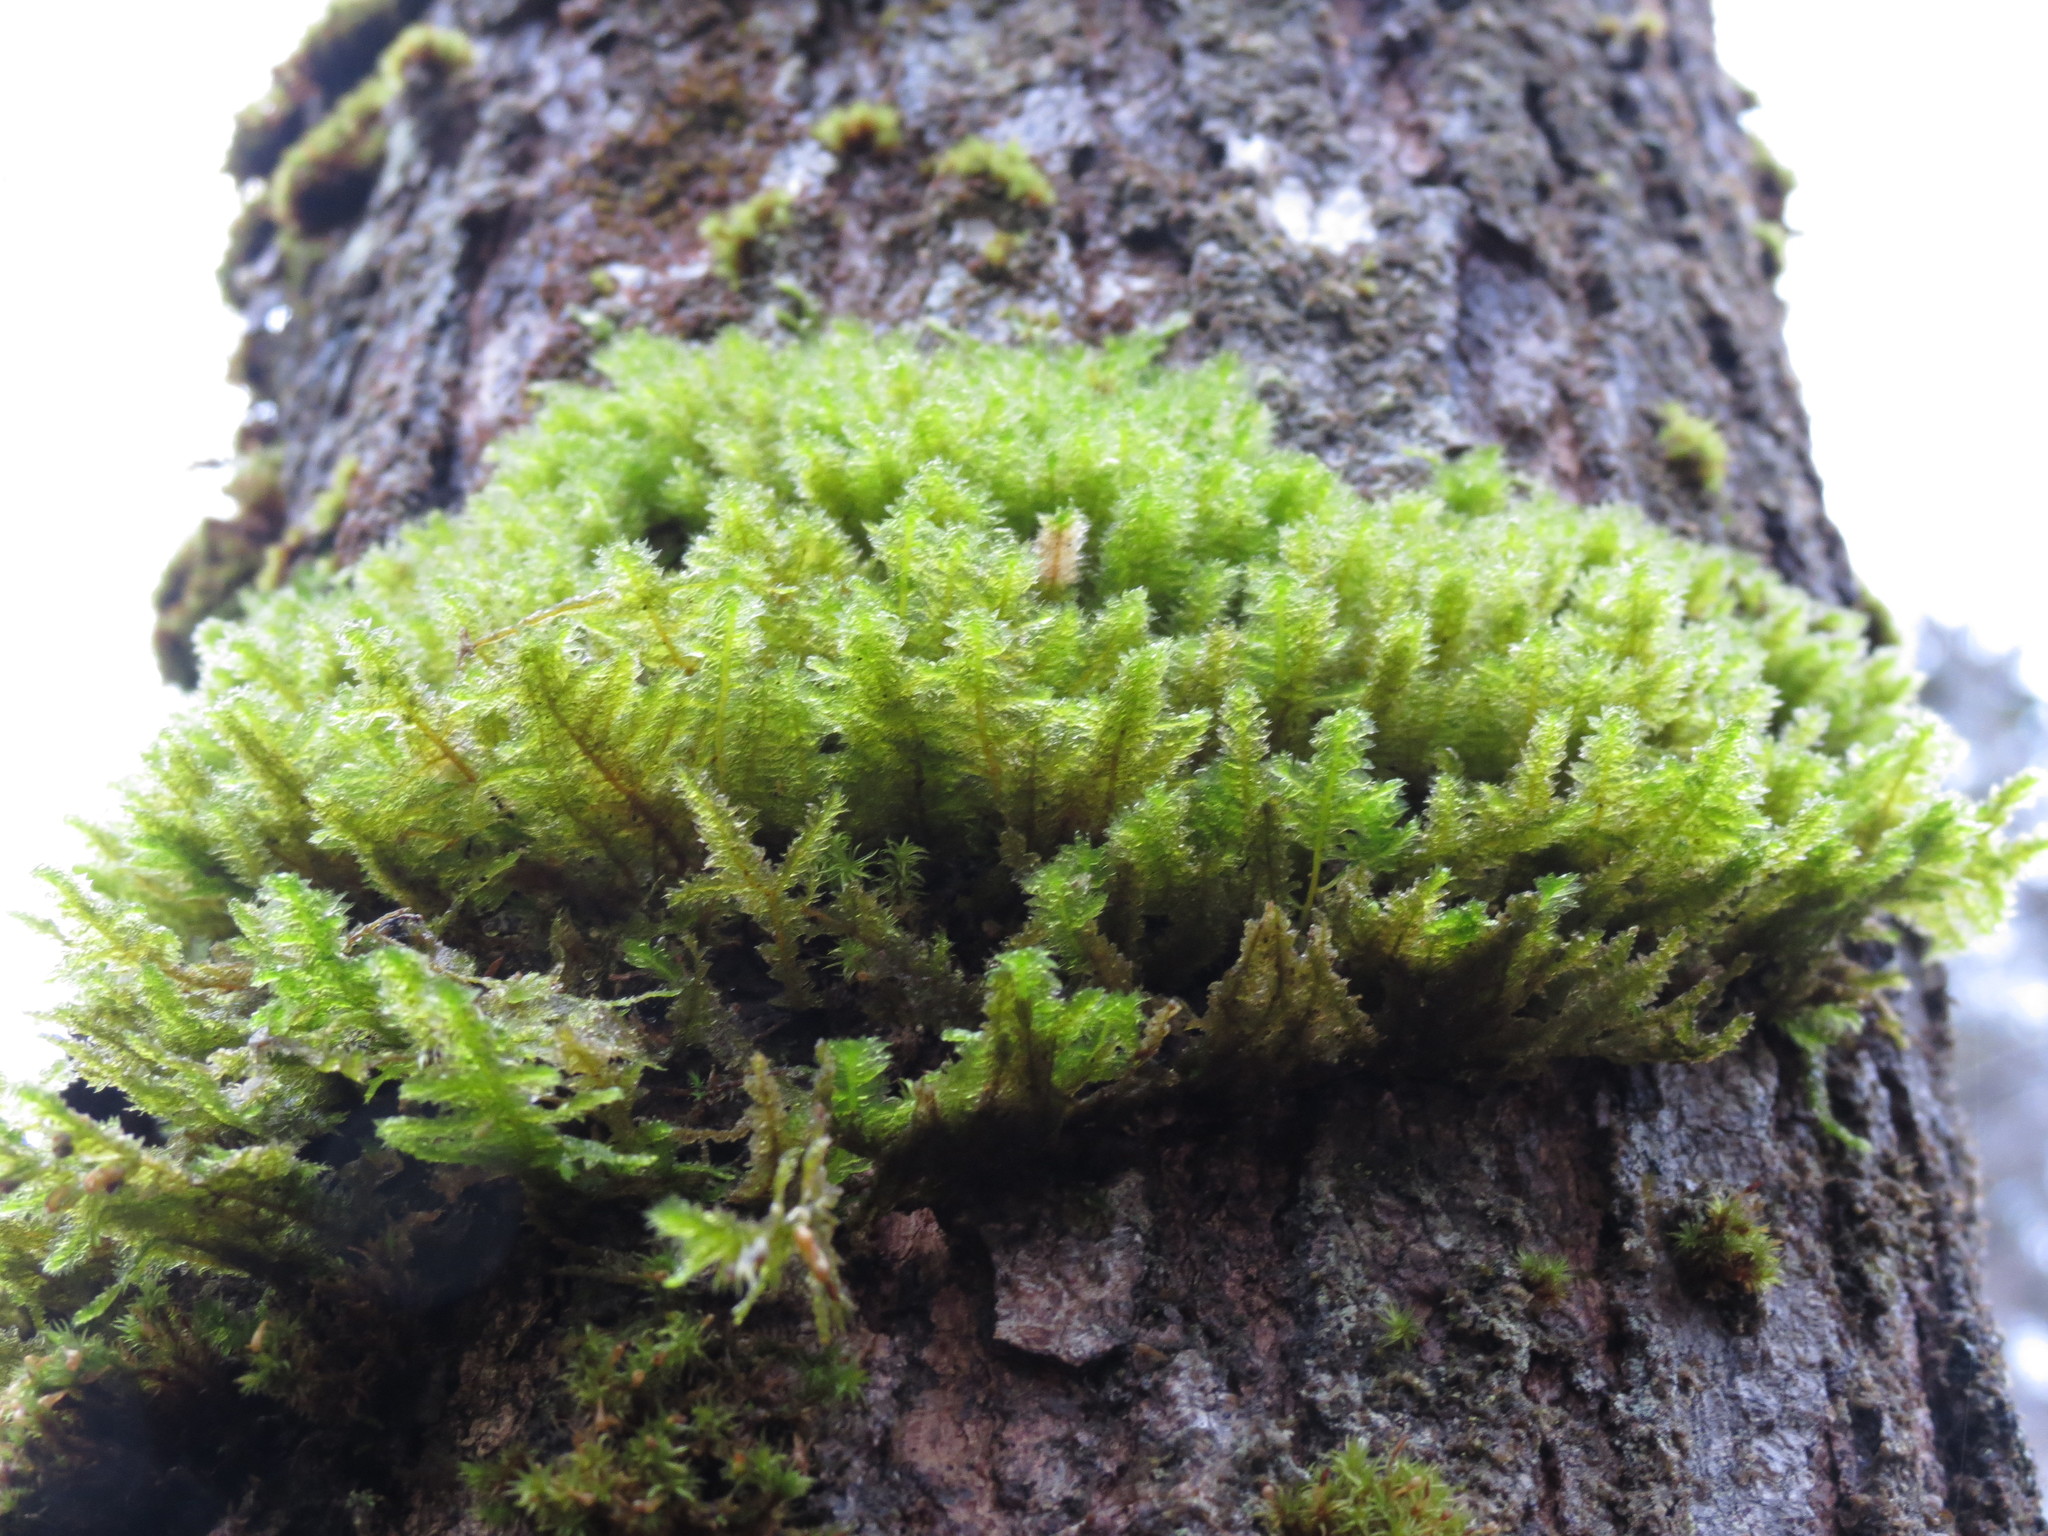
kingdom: Plantae
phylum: Bryophyta
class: Bryopsida
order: Hypnales
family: Neckeraceae
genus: Neckera
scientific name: Neckera pennata
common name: Feathery neckera
